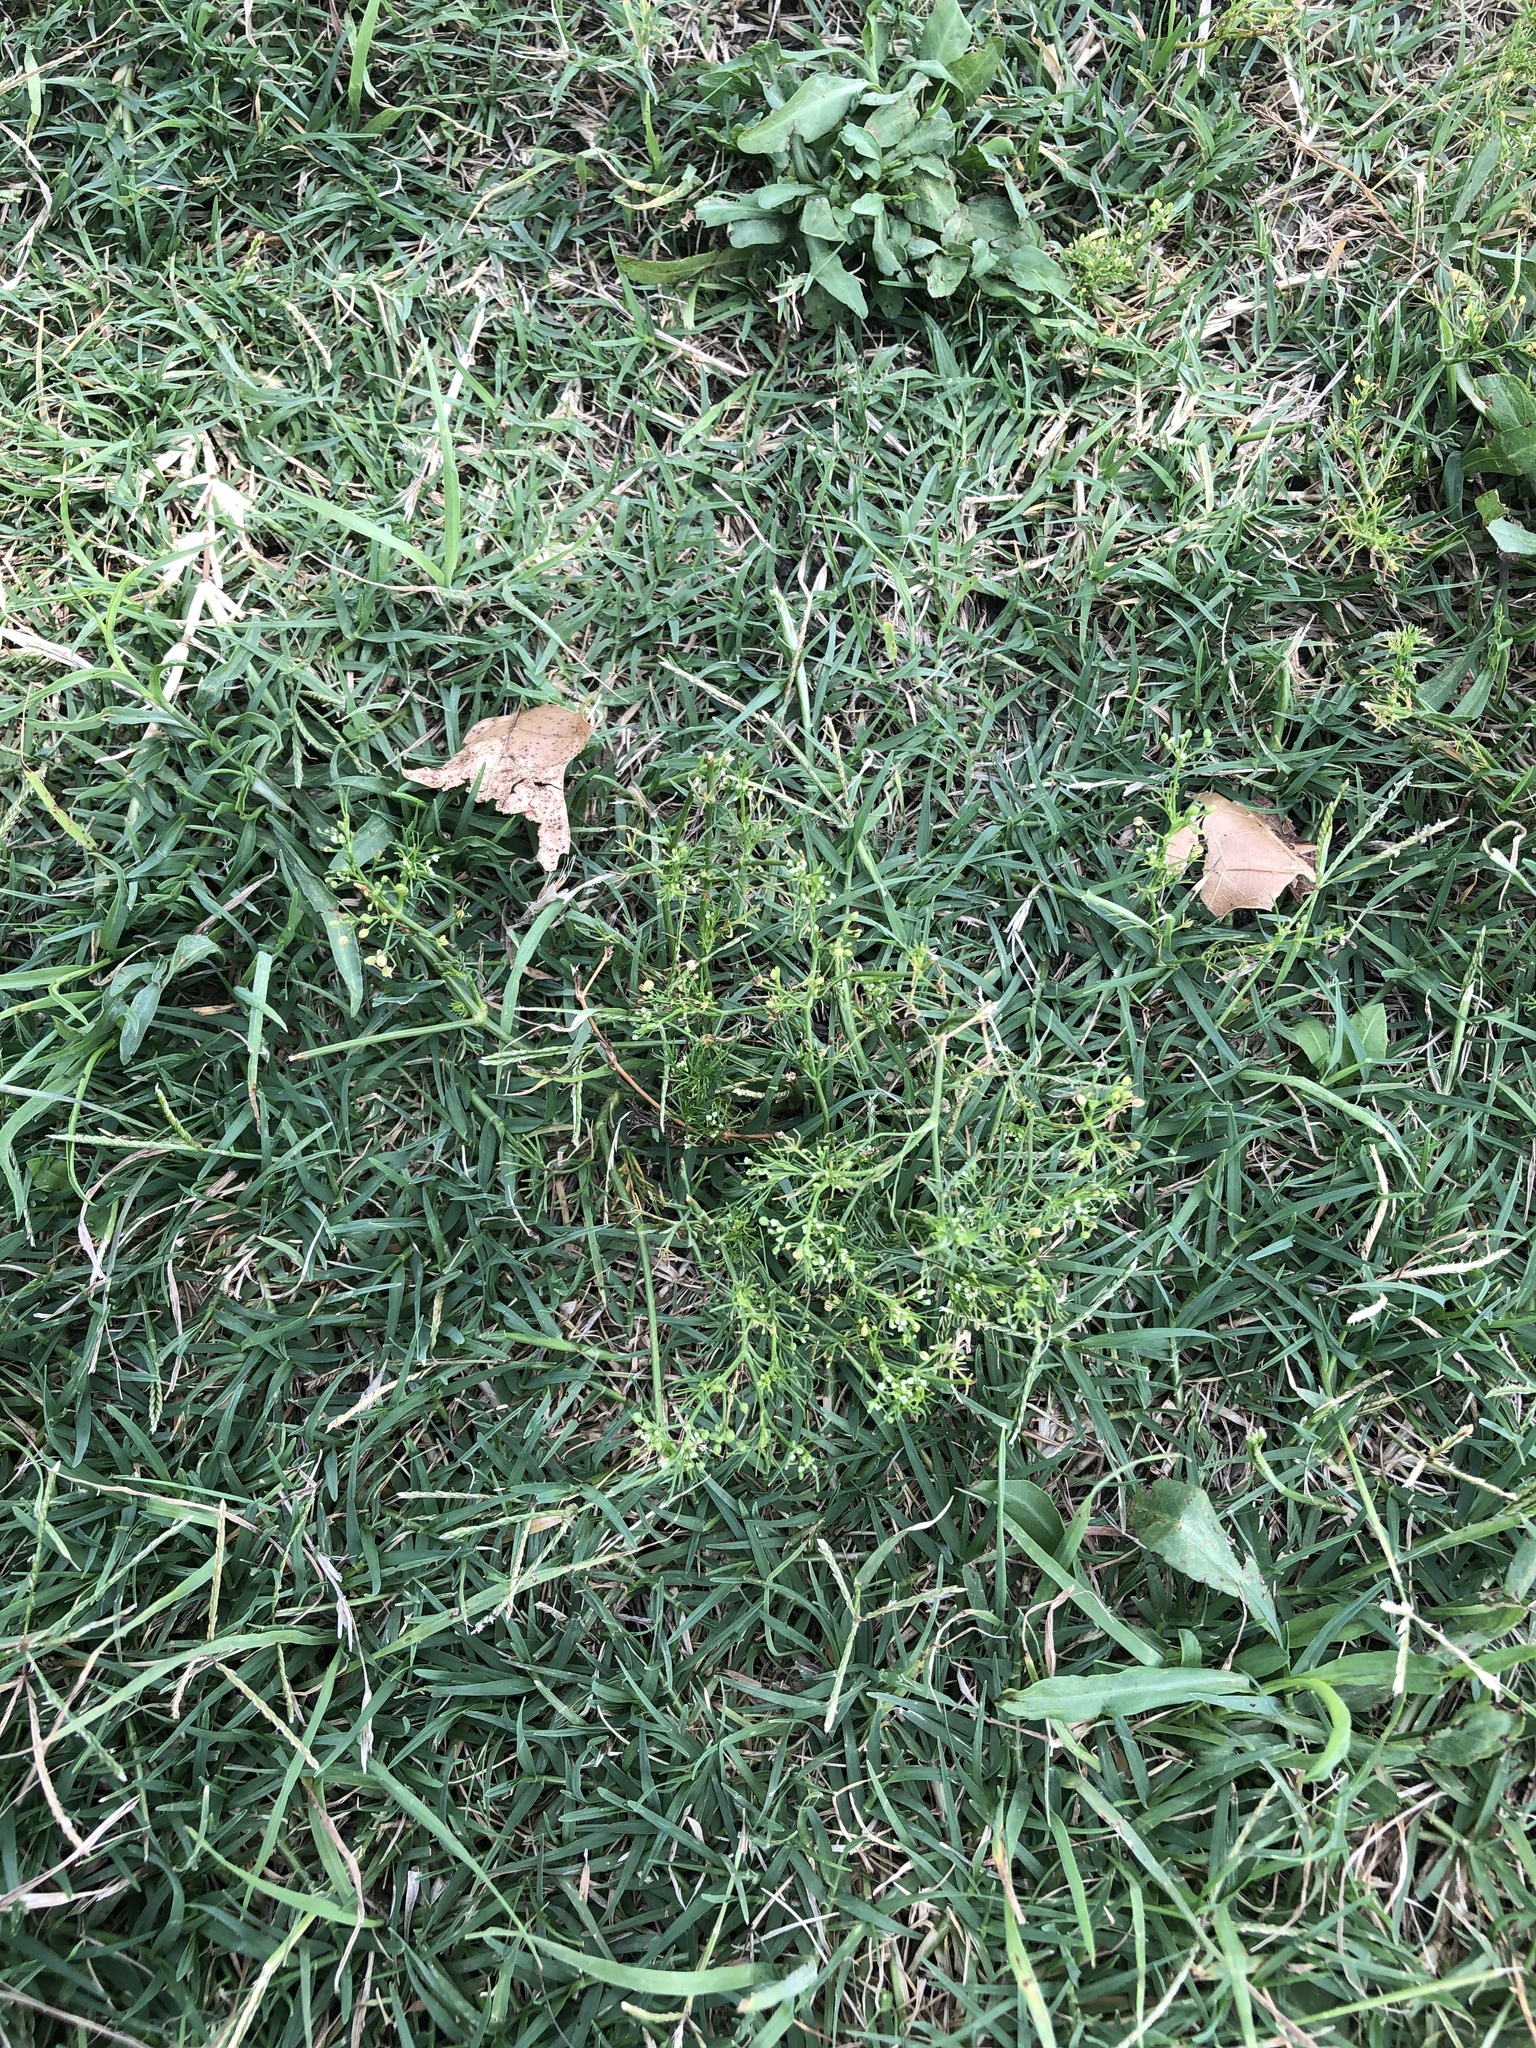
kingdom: Plantae
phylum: Tracheophyta
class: Magnoliopsida
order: Apiales
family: Apiaceae
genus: Cyclospermum
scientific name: Cyclospermum leptophyllum
